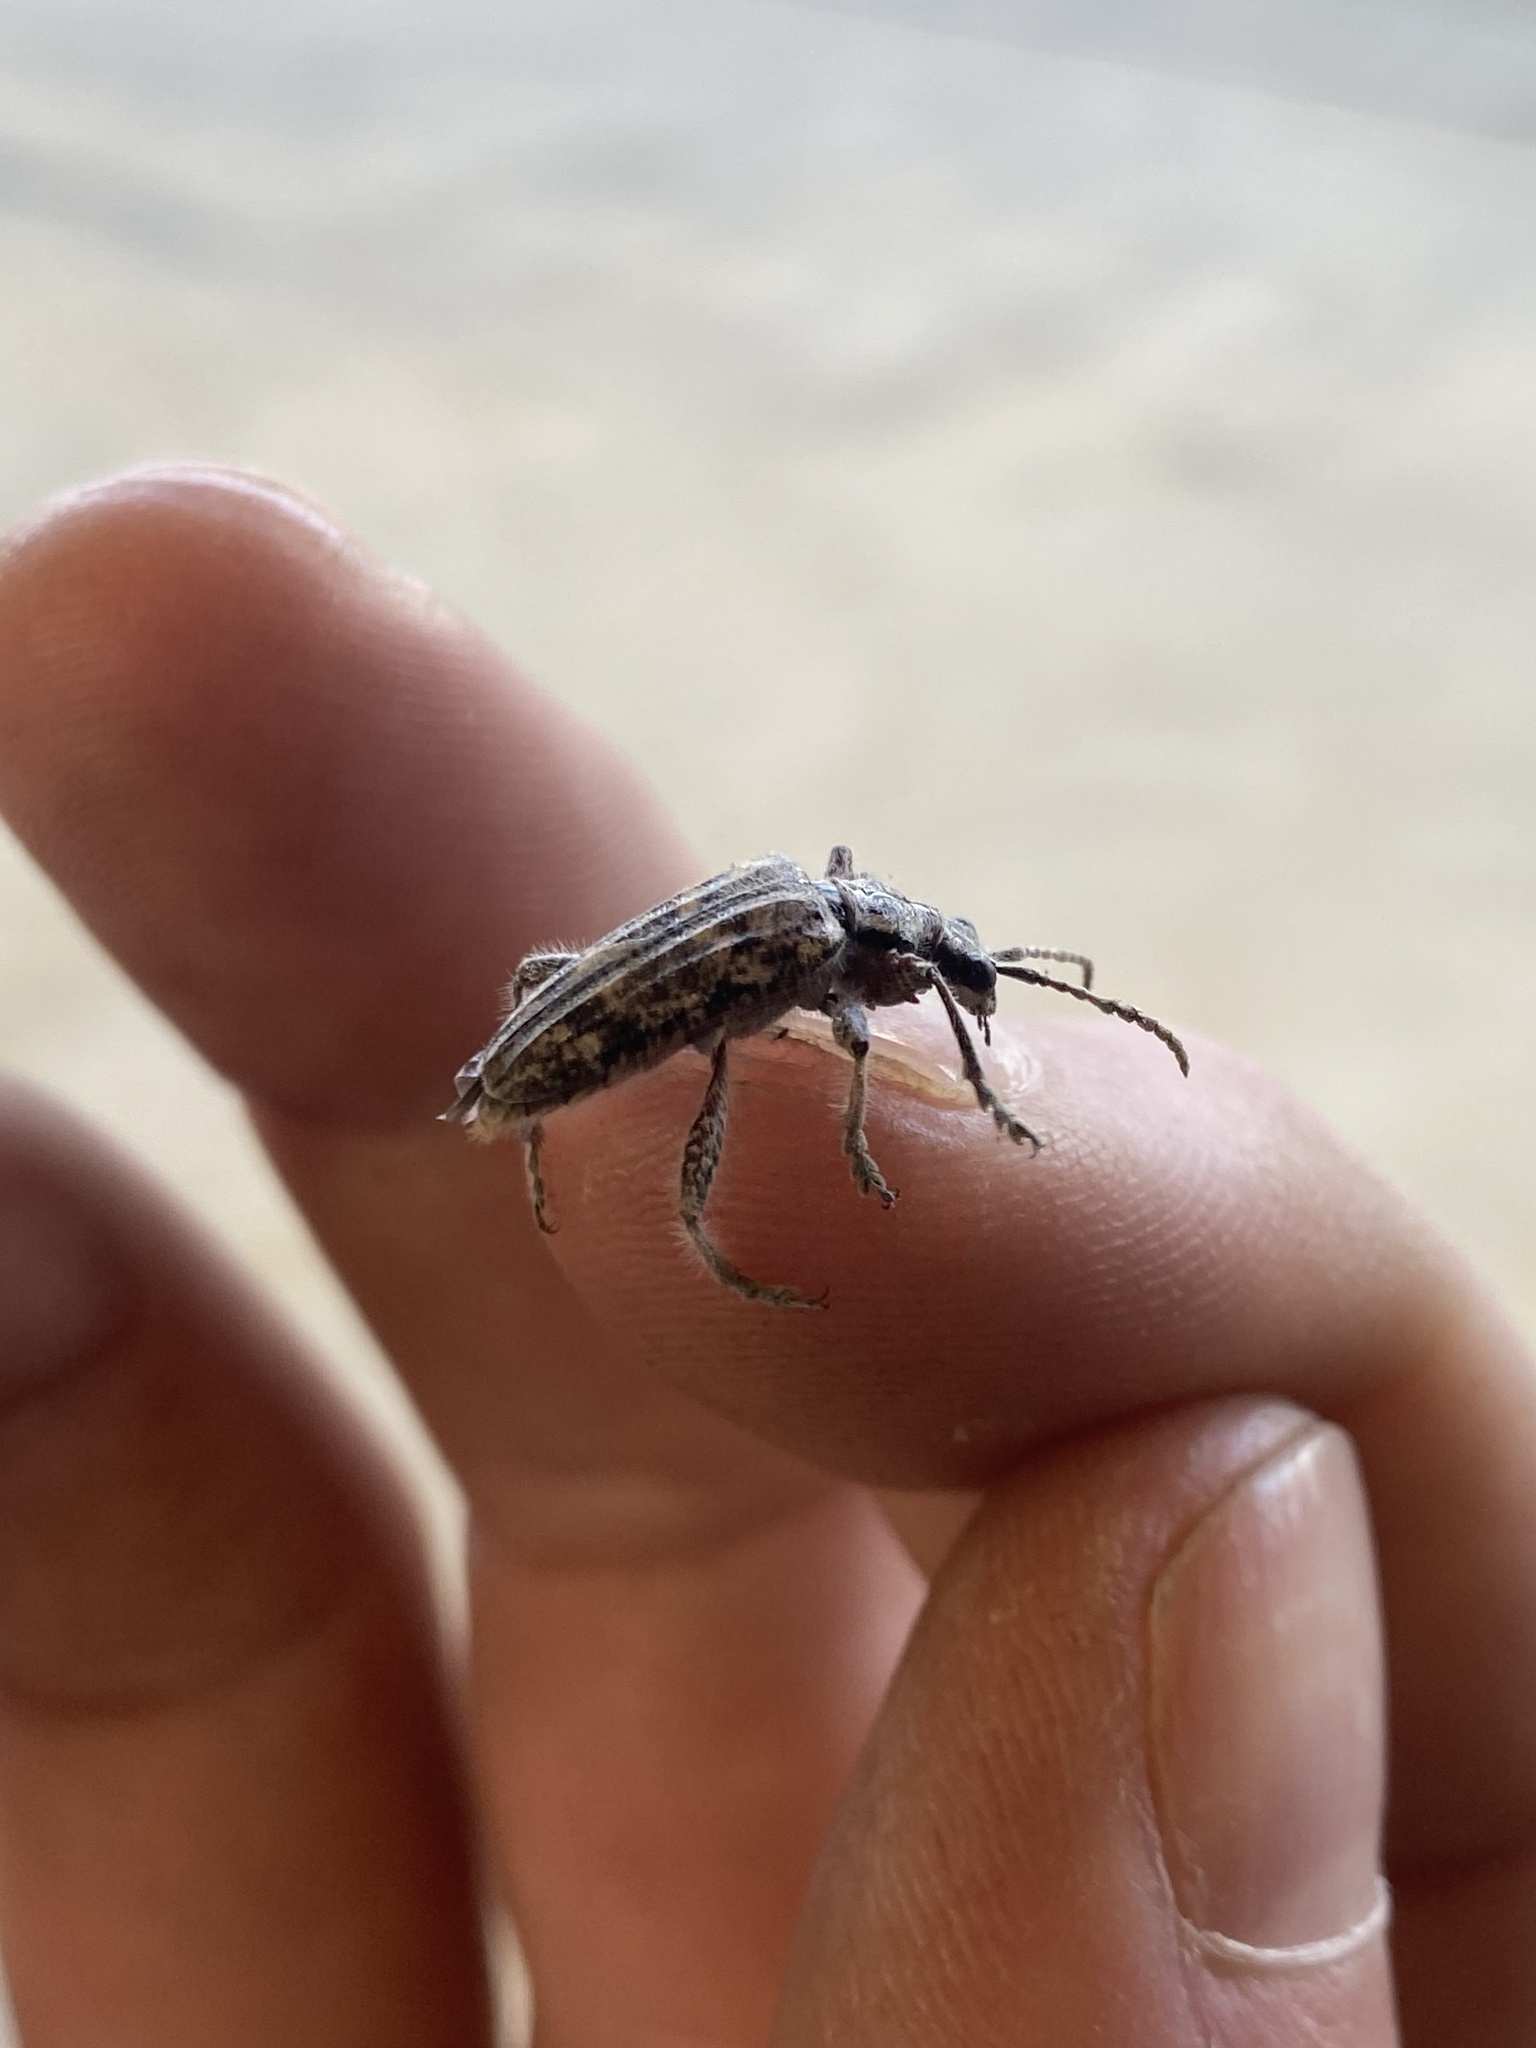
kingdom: Animalia
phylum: Arthropoda
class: Insecta
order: Coleoptera
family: Cerambycidae
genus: Rhagium
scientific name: Rhagium inquisitor
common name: Ribbed pine borer
